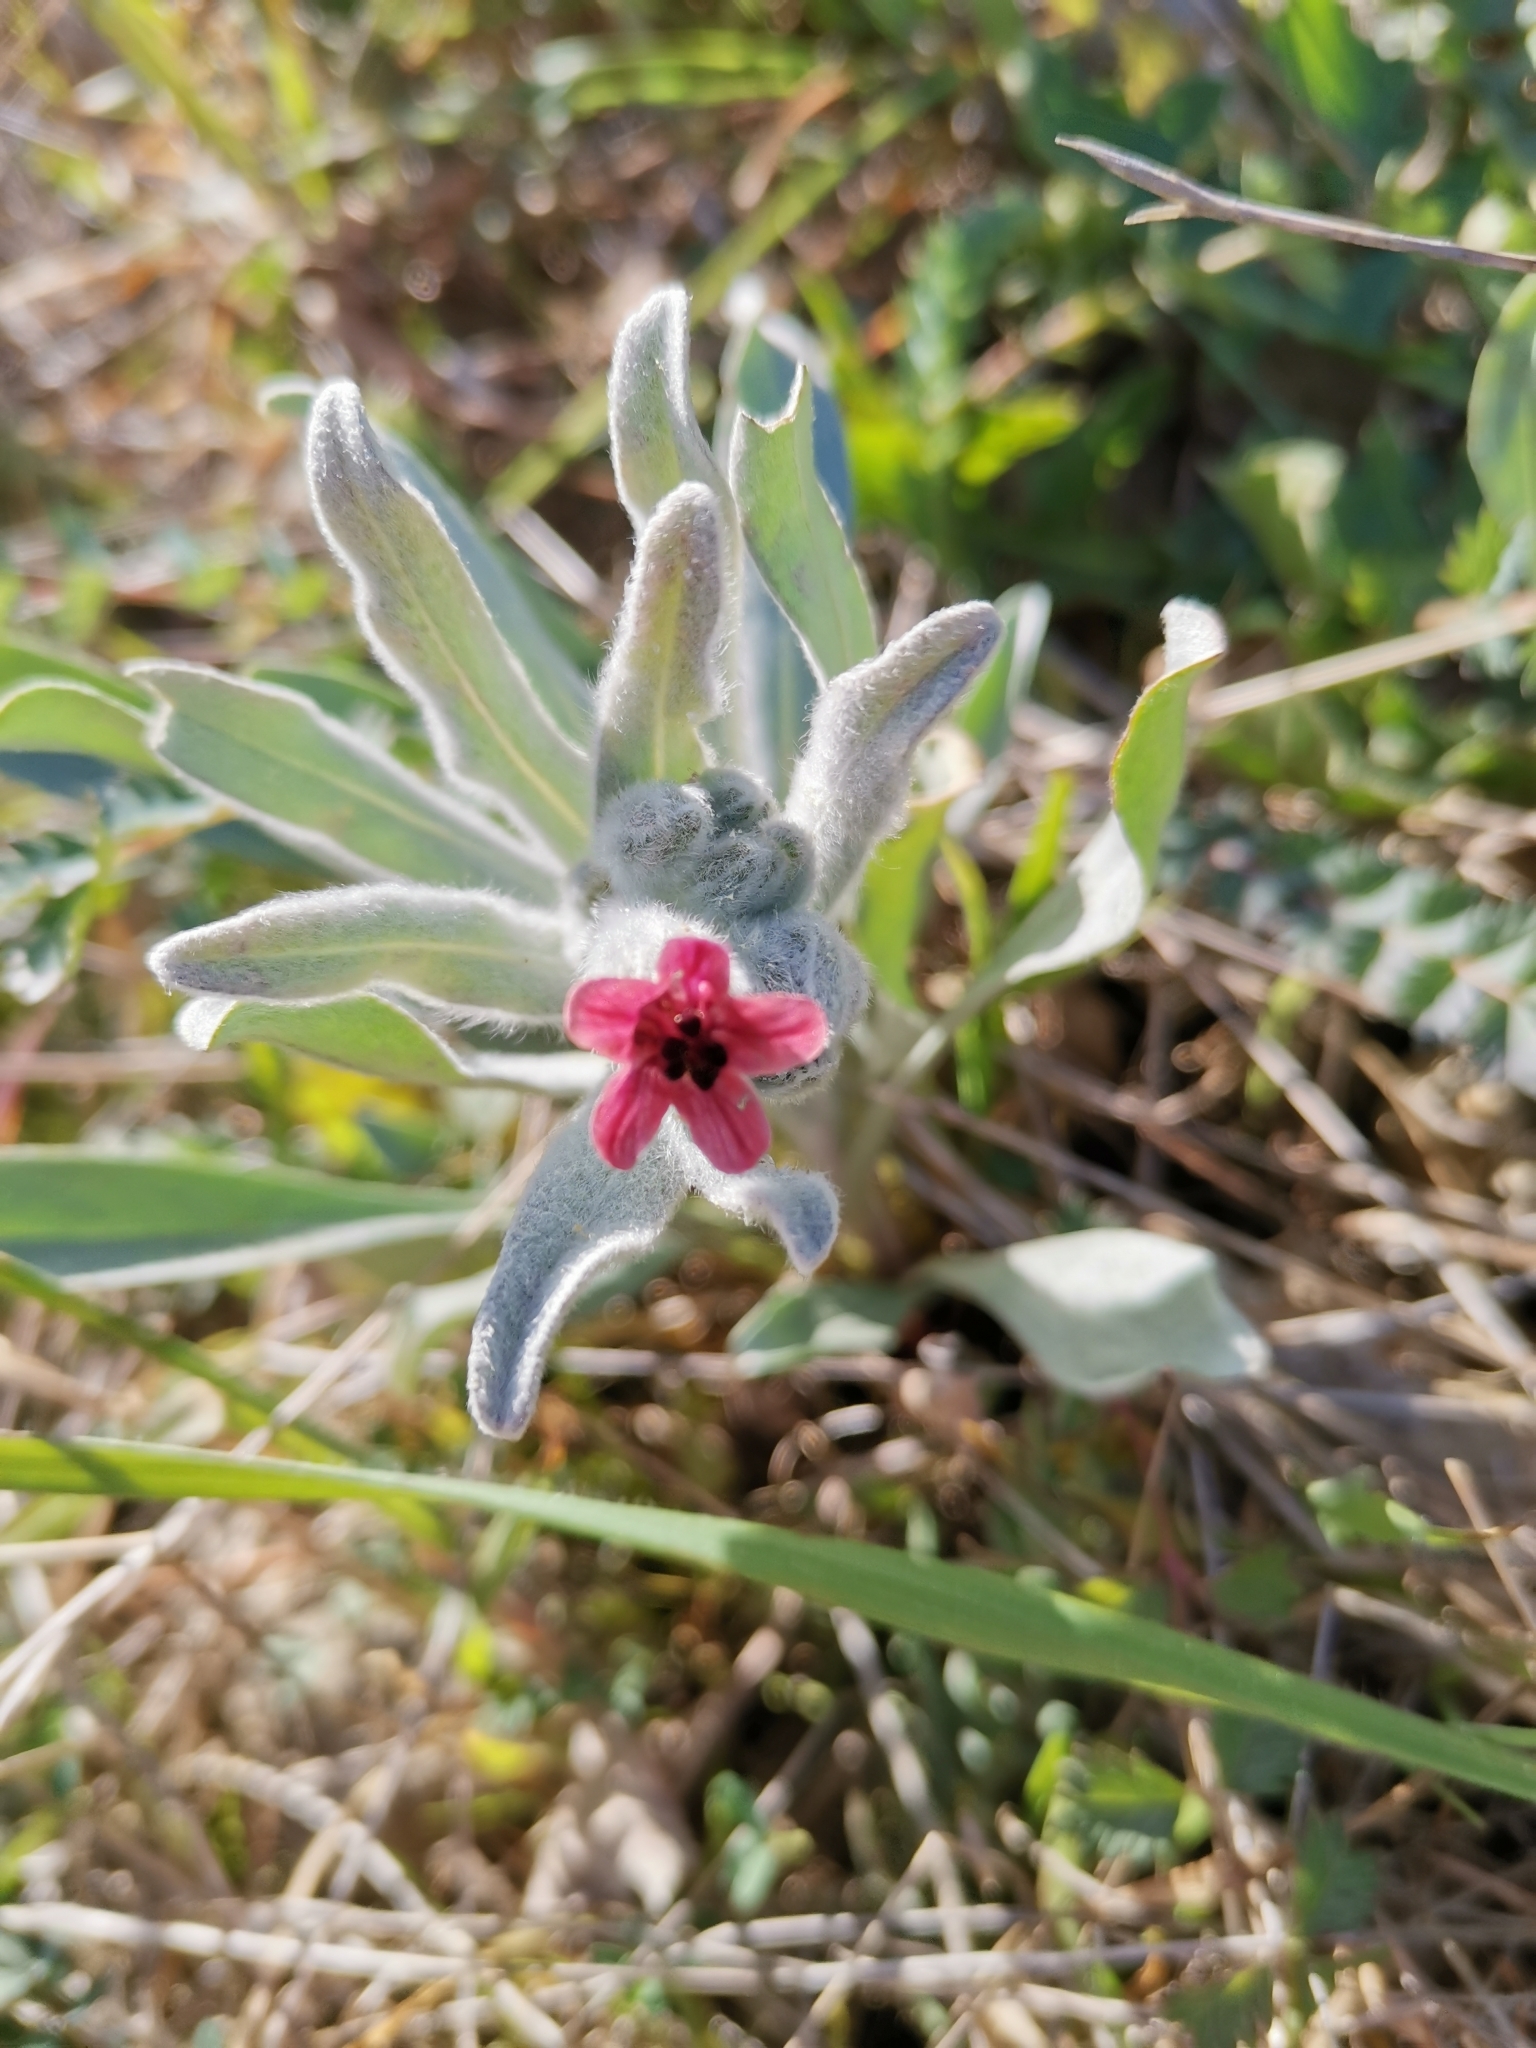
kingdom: Plantae
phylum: Tracheophyta
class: Magnoliopsida
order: Boraginales
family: Boraginaceae
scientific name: Boraginaceae
